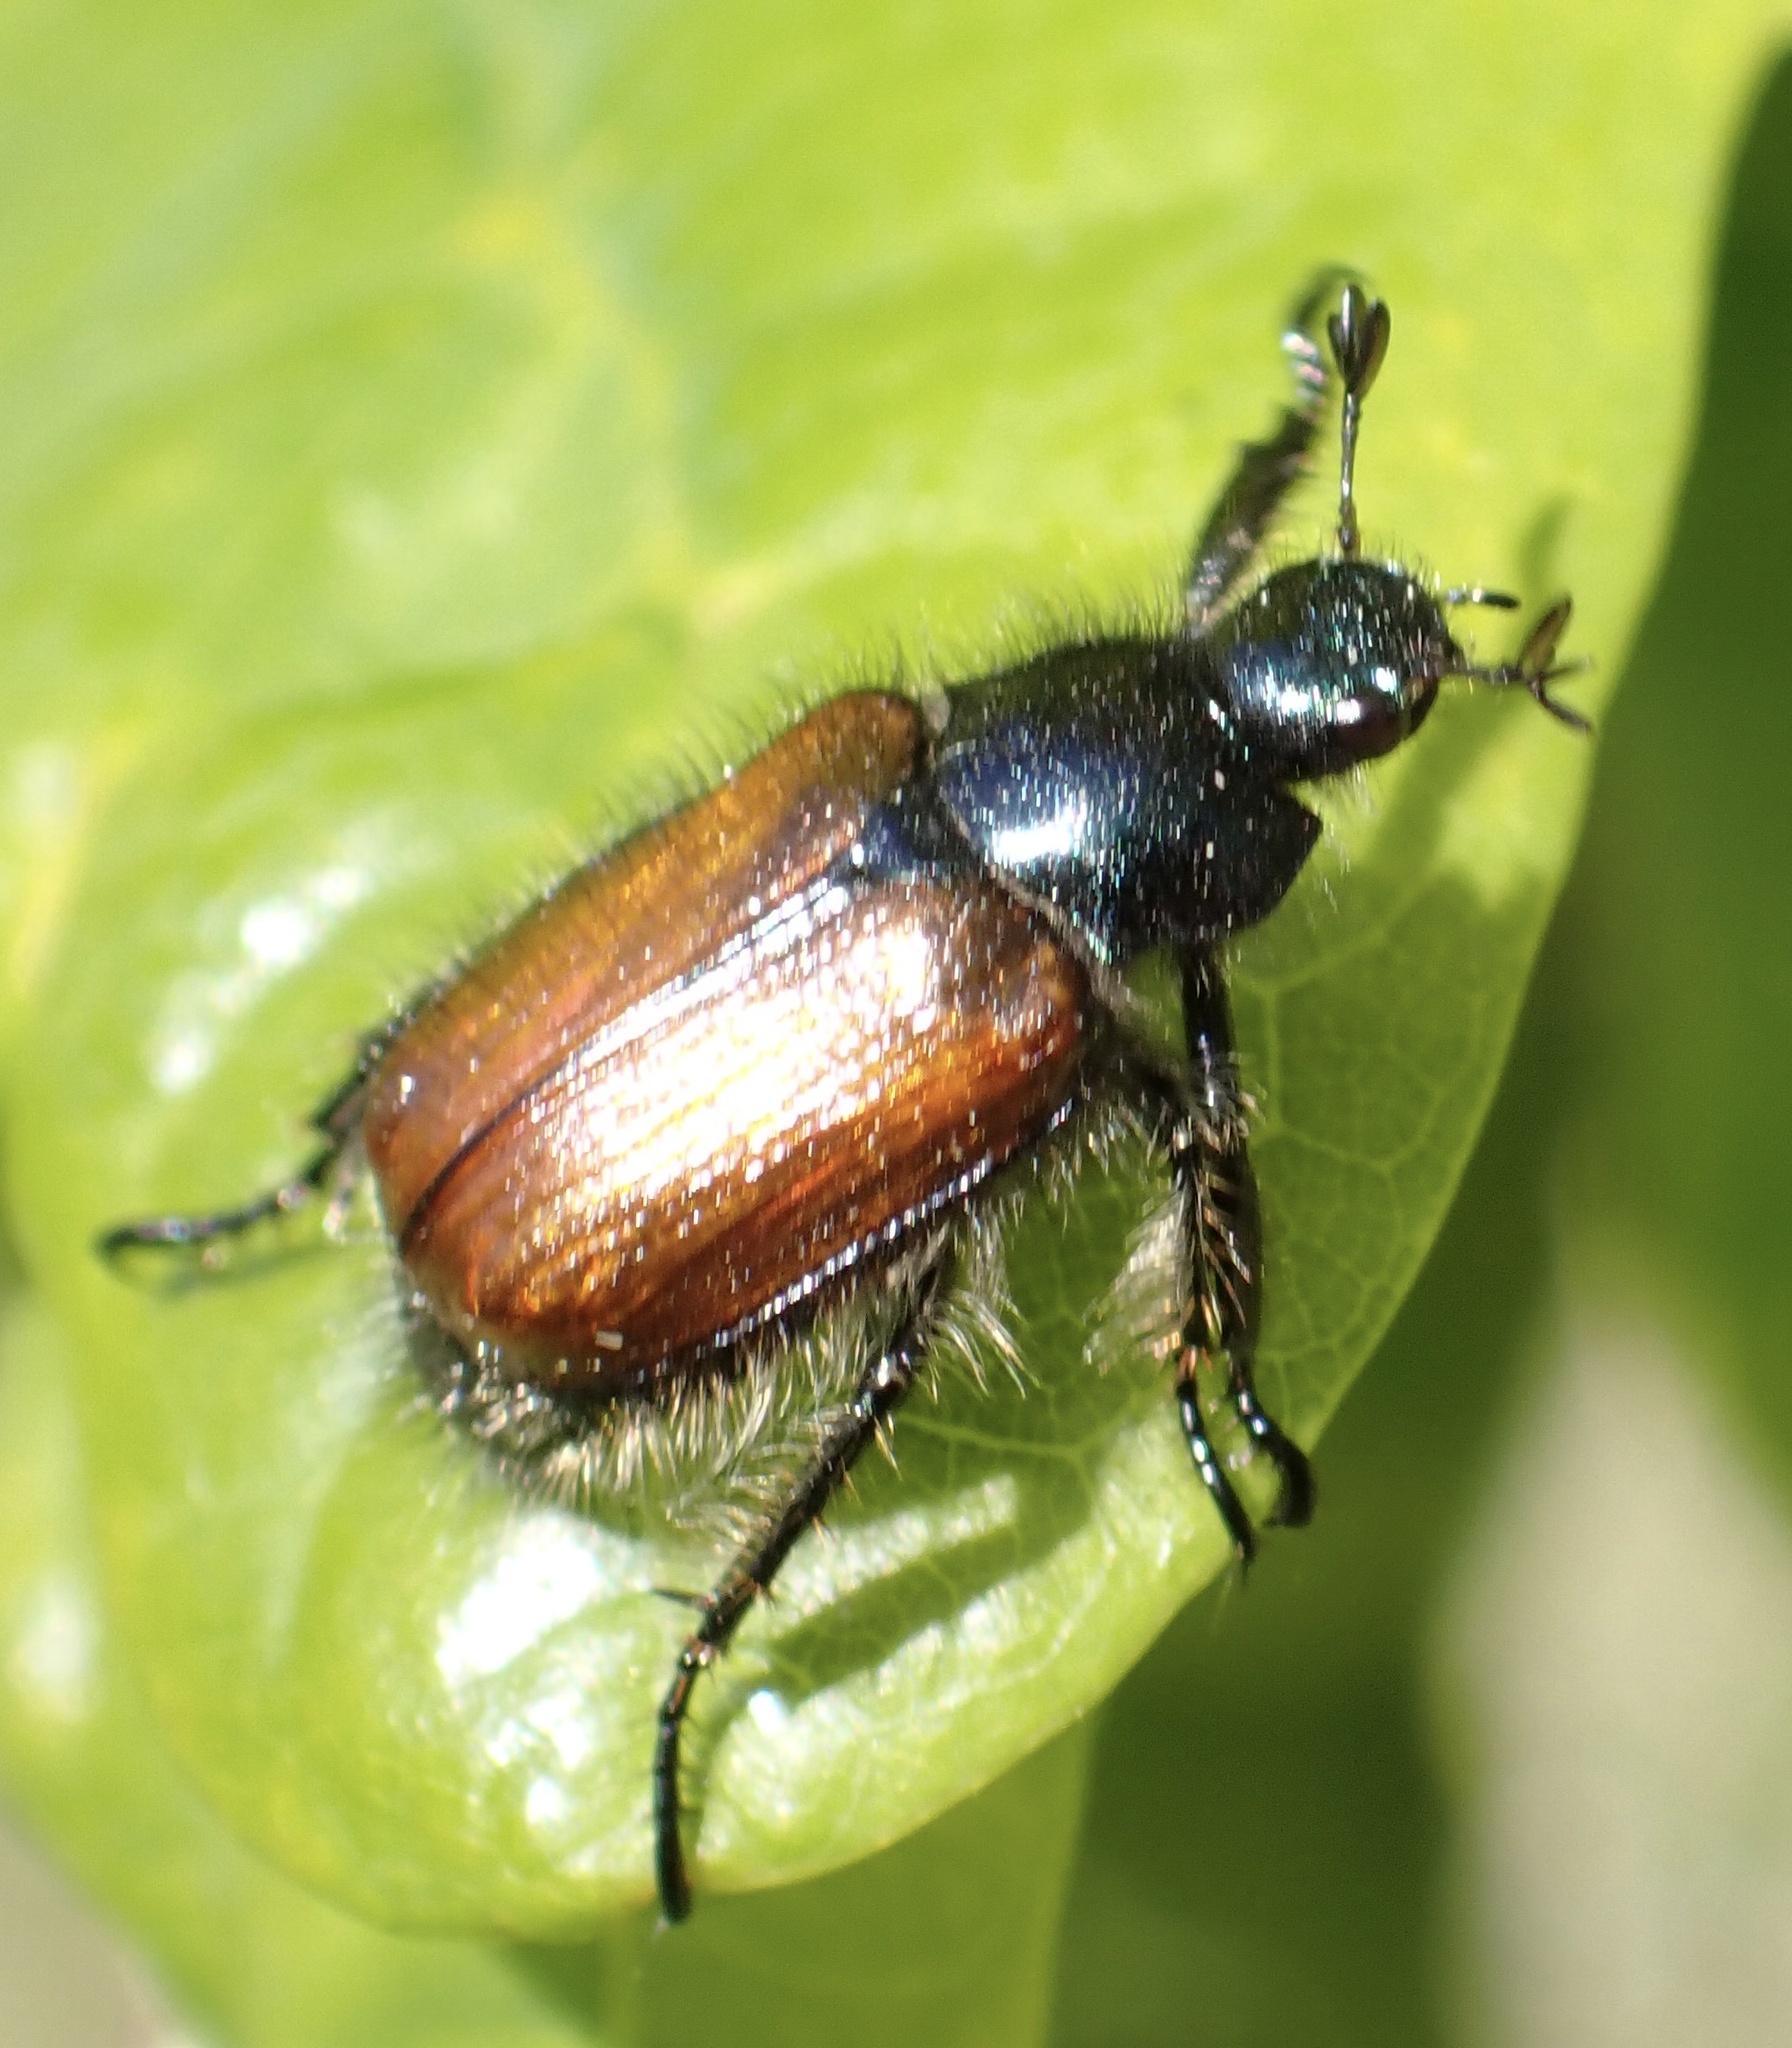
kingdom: Animalia
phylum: Arthropoda
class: Insecta
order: Coleoptera
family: Scarabaeidae
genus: Phyllopertha
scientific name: Phyllopertha horticola
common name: Garden chafer
